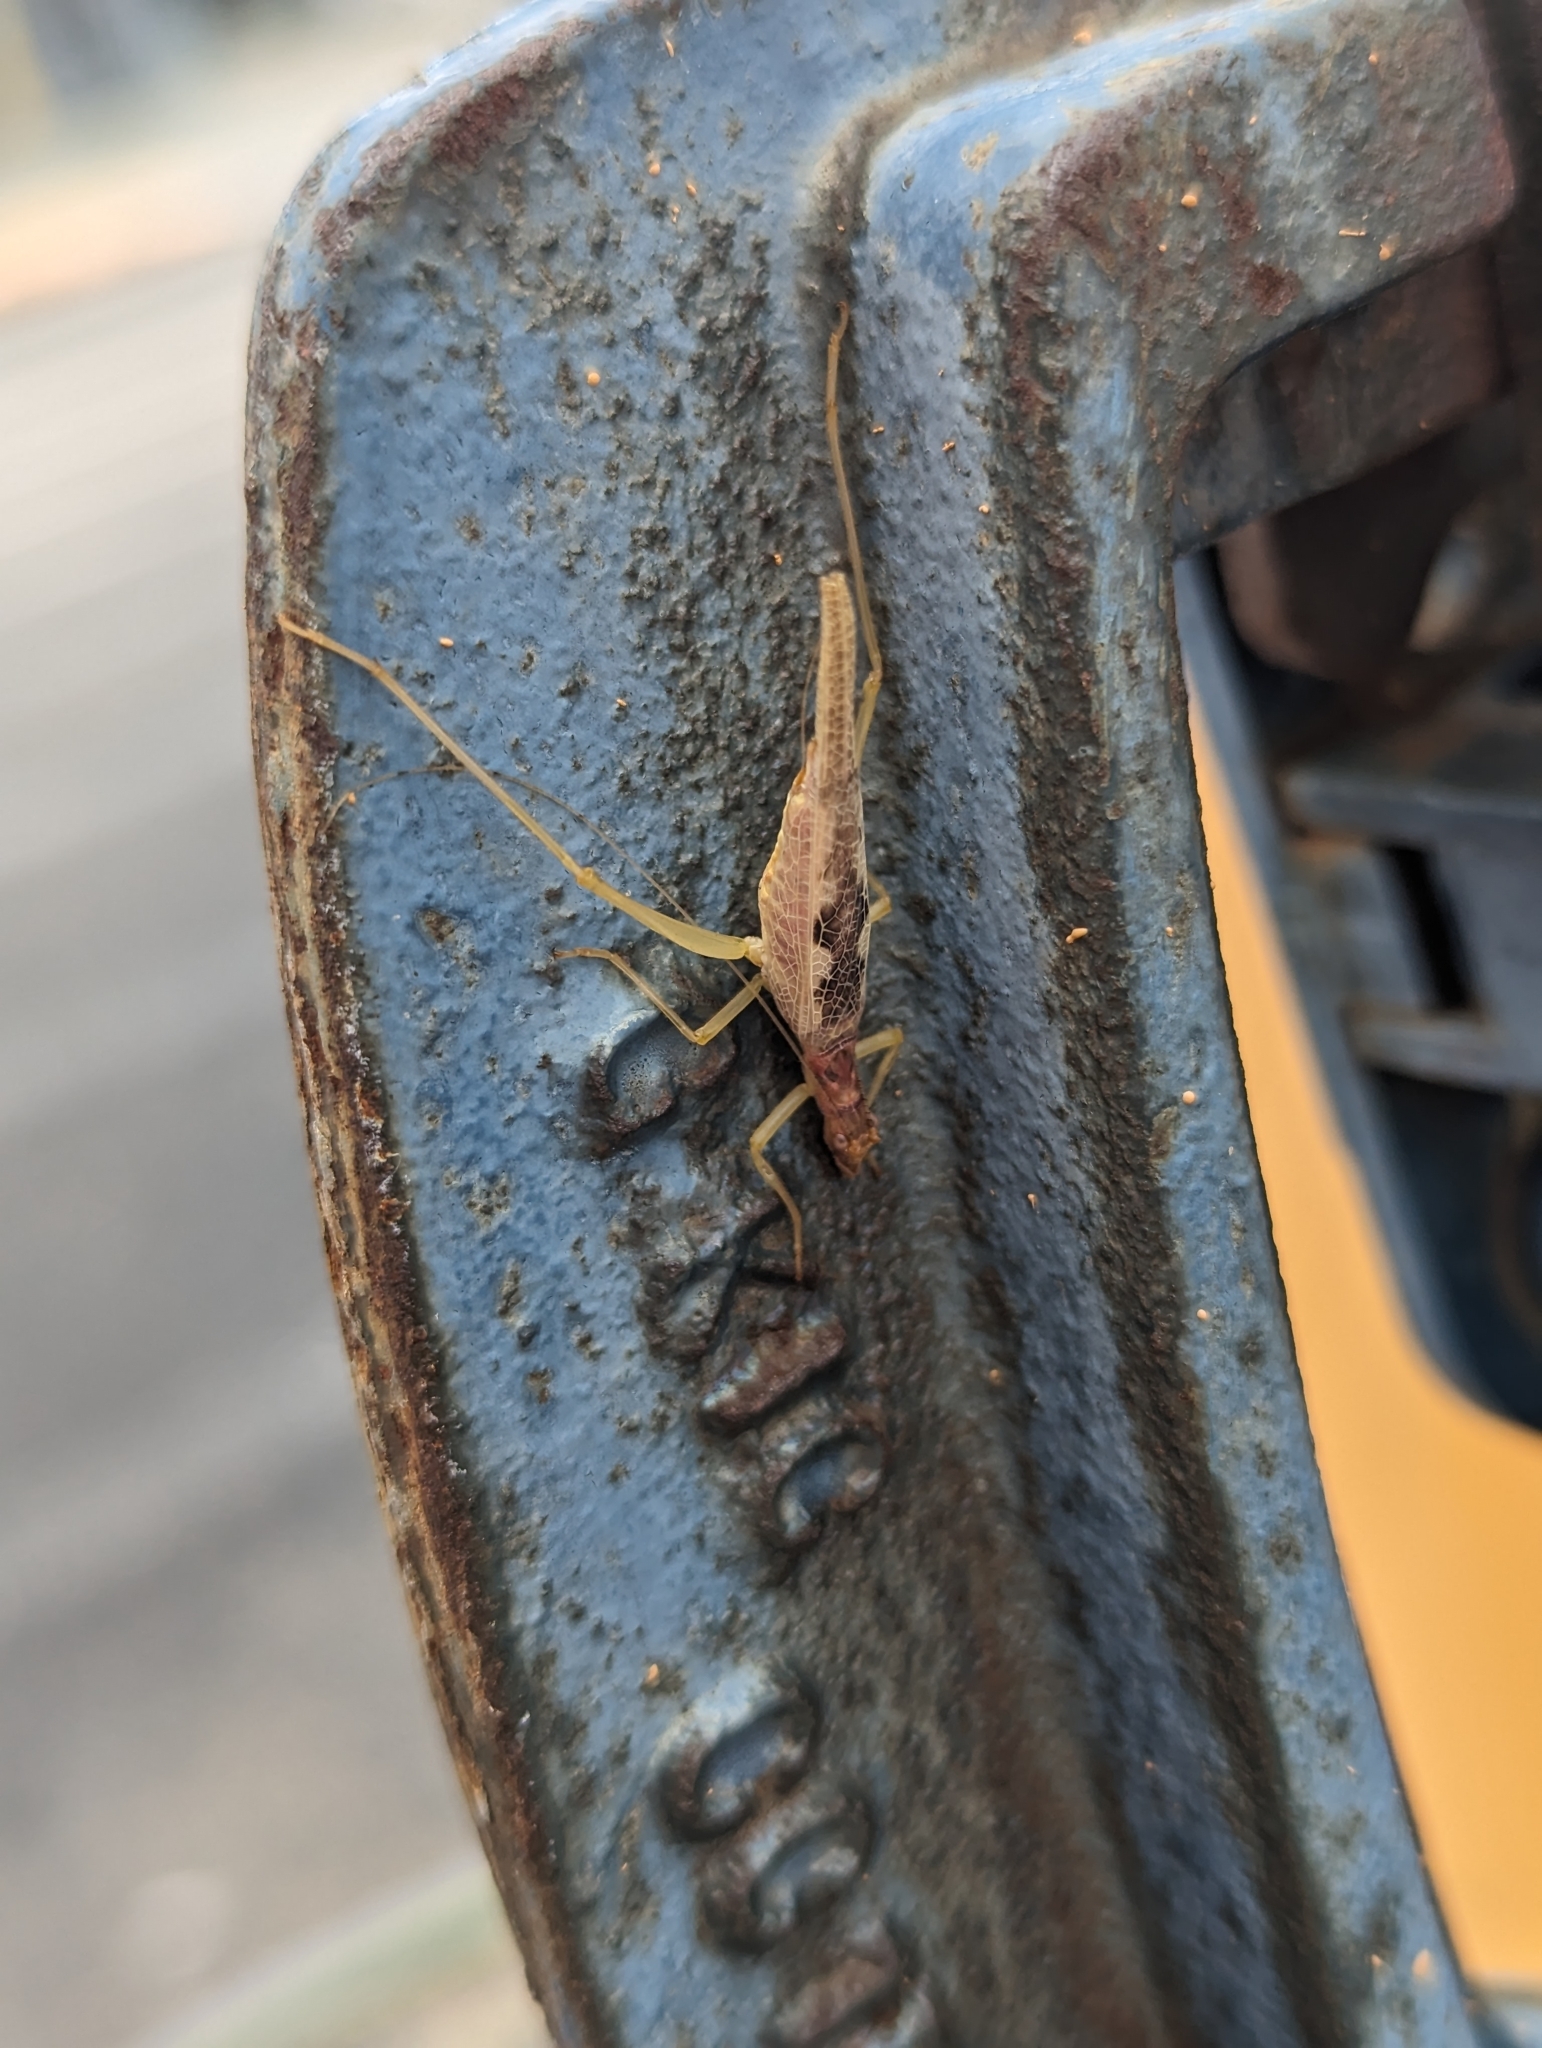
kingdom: Animalia
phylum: Arthropoda
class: Insecta
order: Orthoptera
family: Gryllidae
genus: Neoxabea
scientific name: Neoxabea bipunctata
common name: Two-spotted tree cricket
